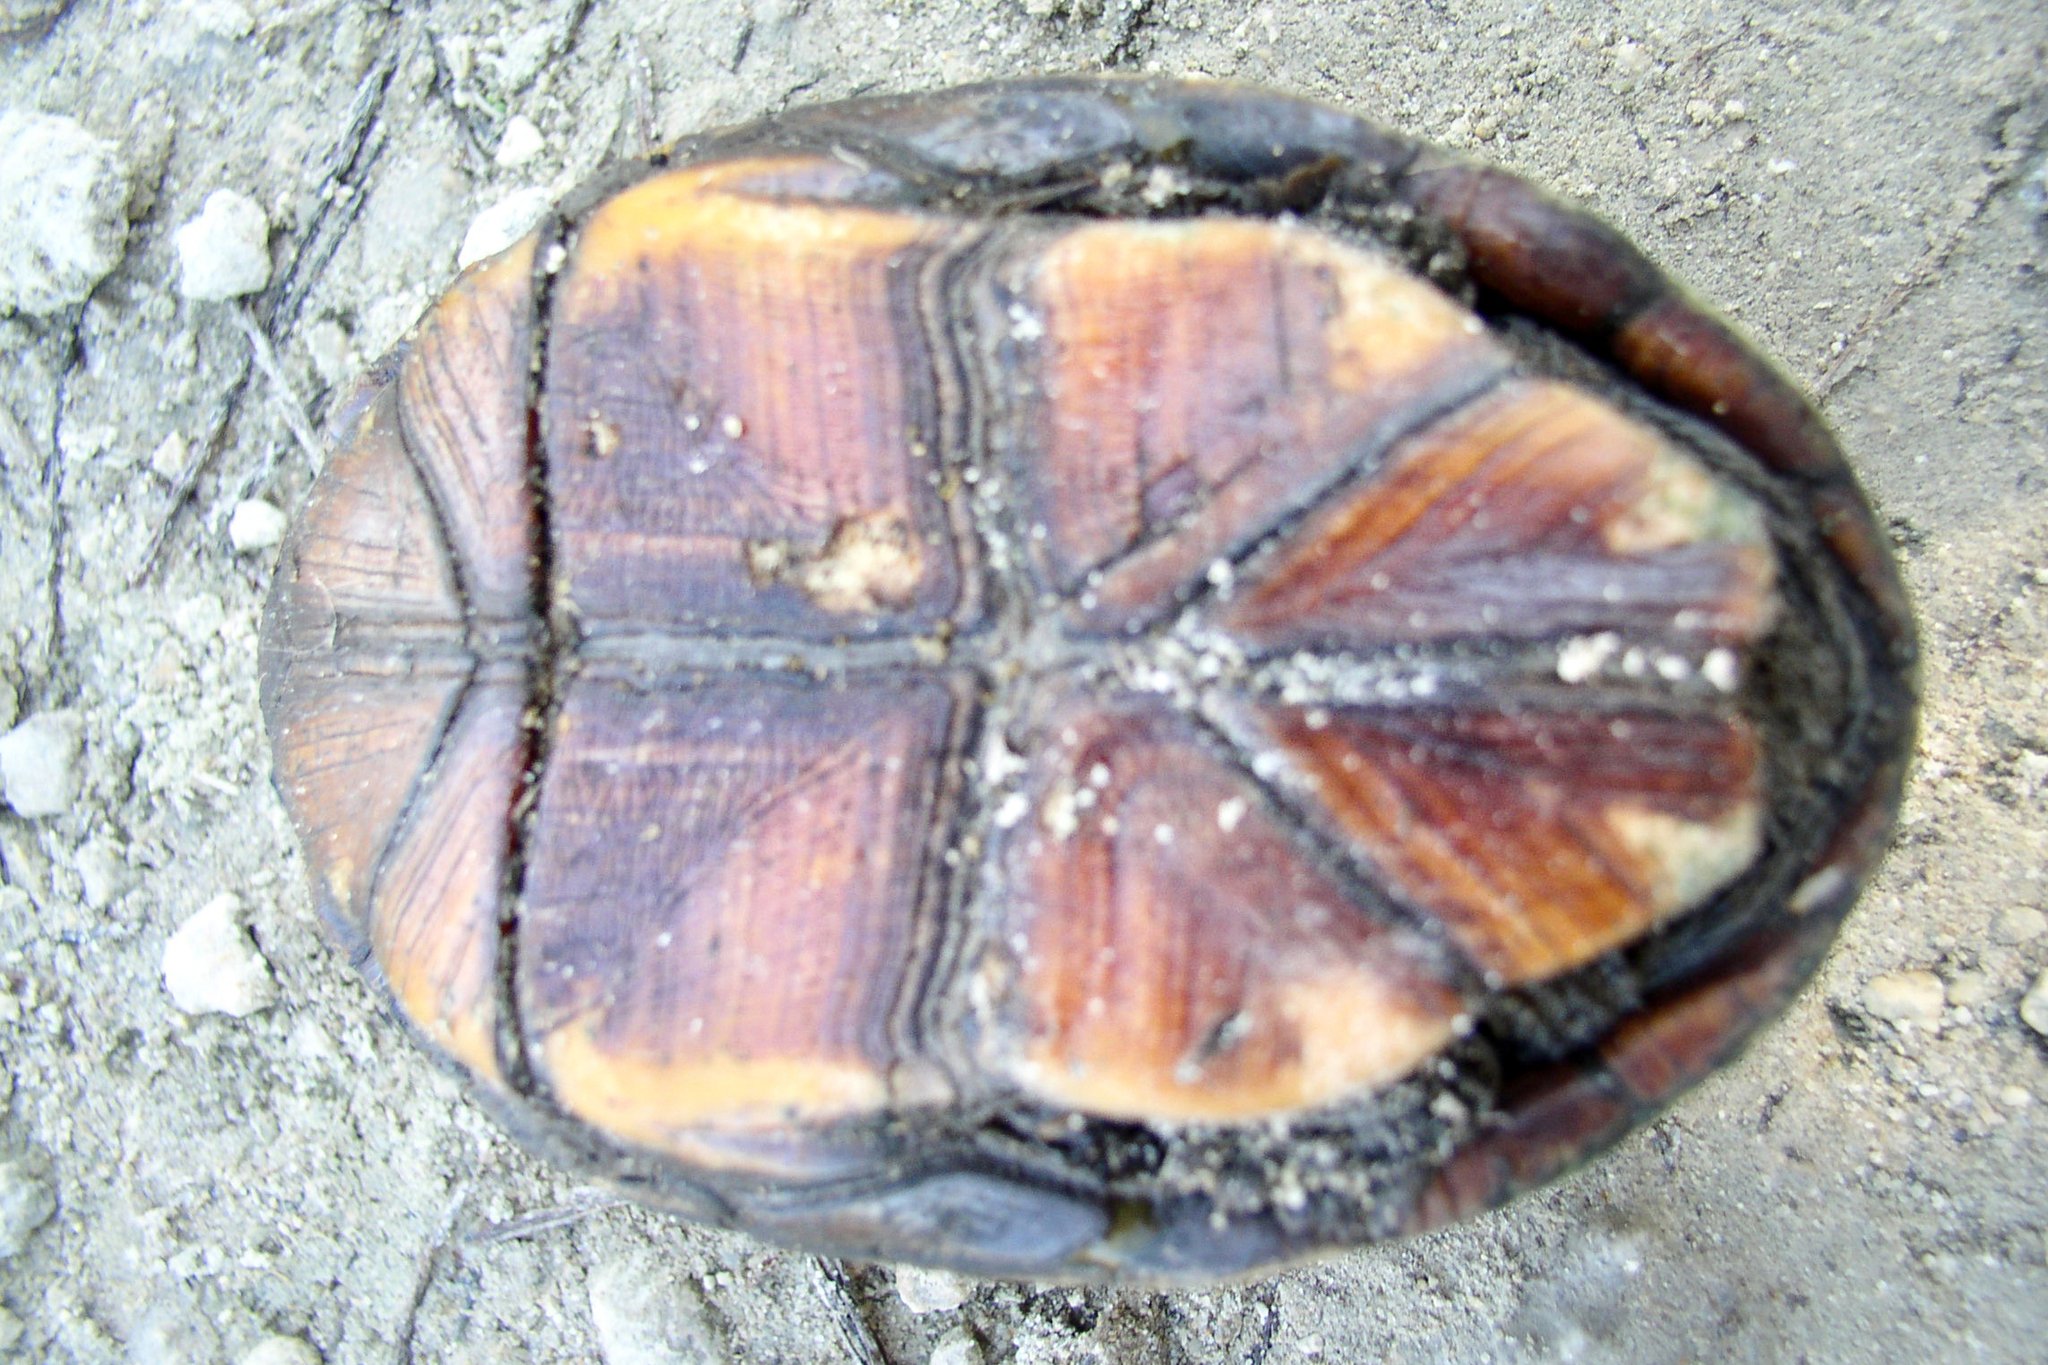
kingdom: Animalia
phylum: Chordata
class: Testudines
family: Kinosternidae
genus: Kinosternon
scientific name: Kinosternon baurii
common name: Striped mud turtle
